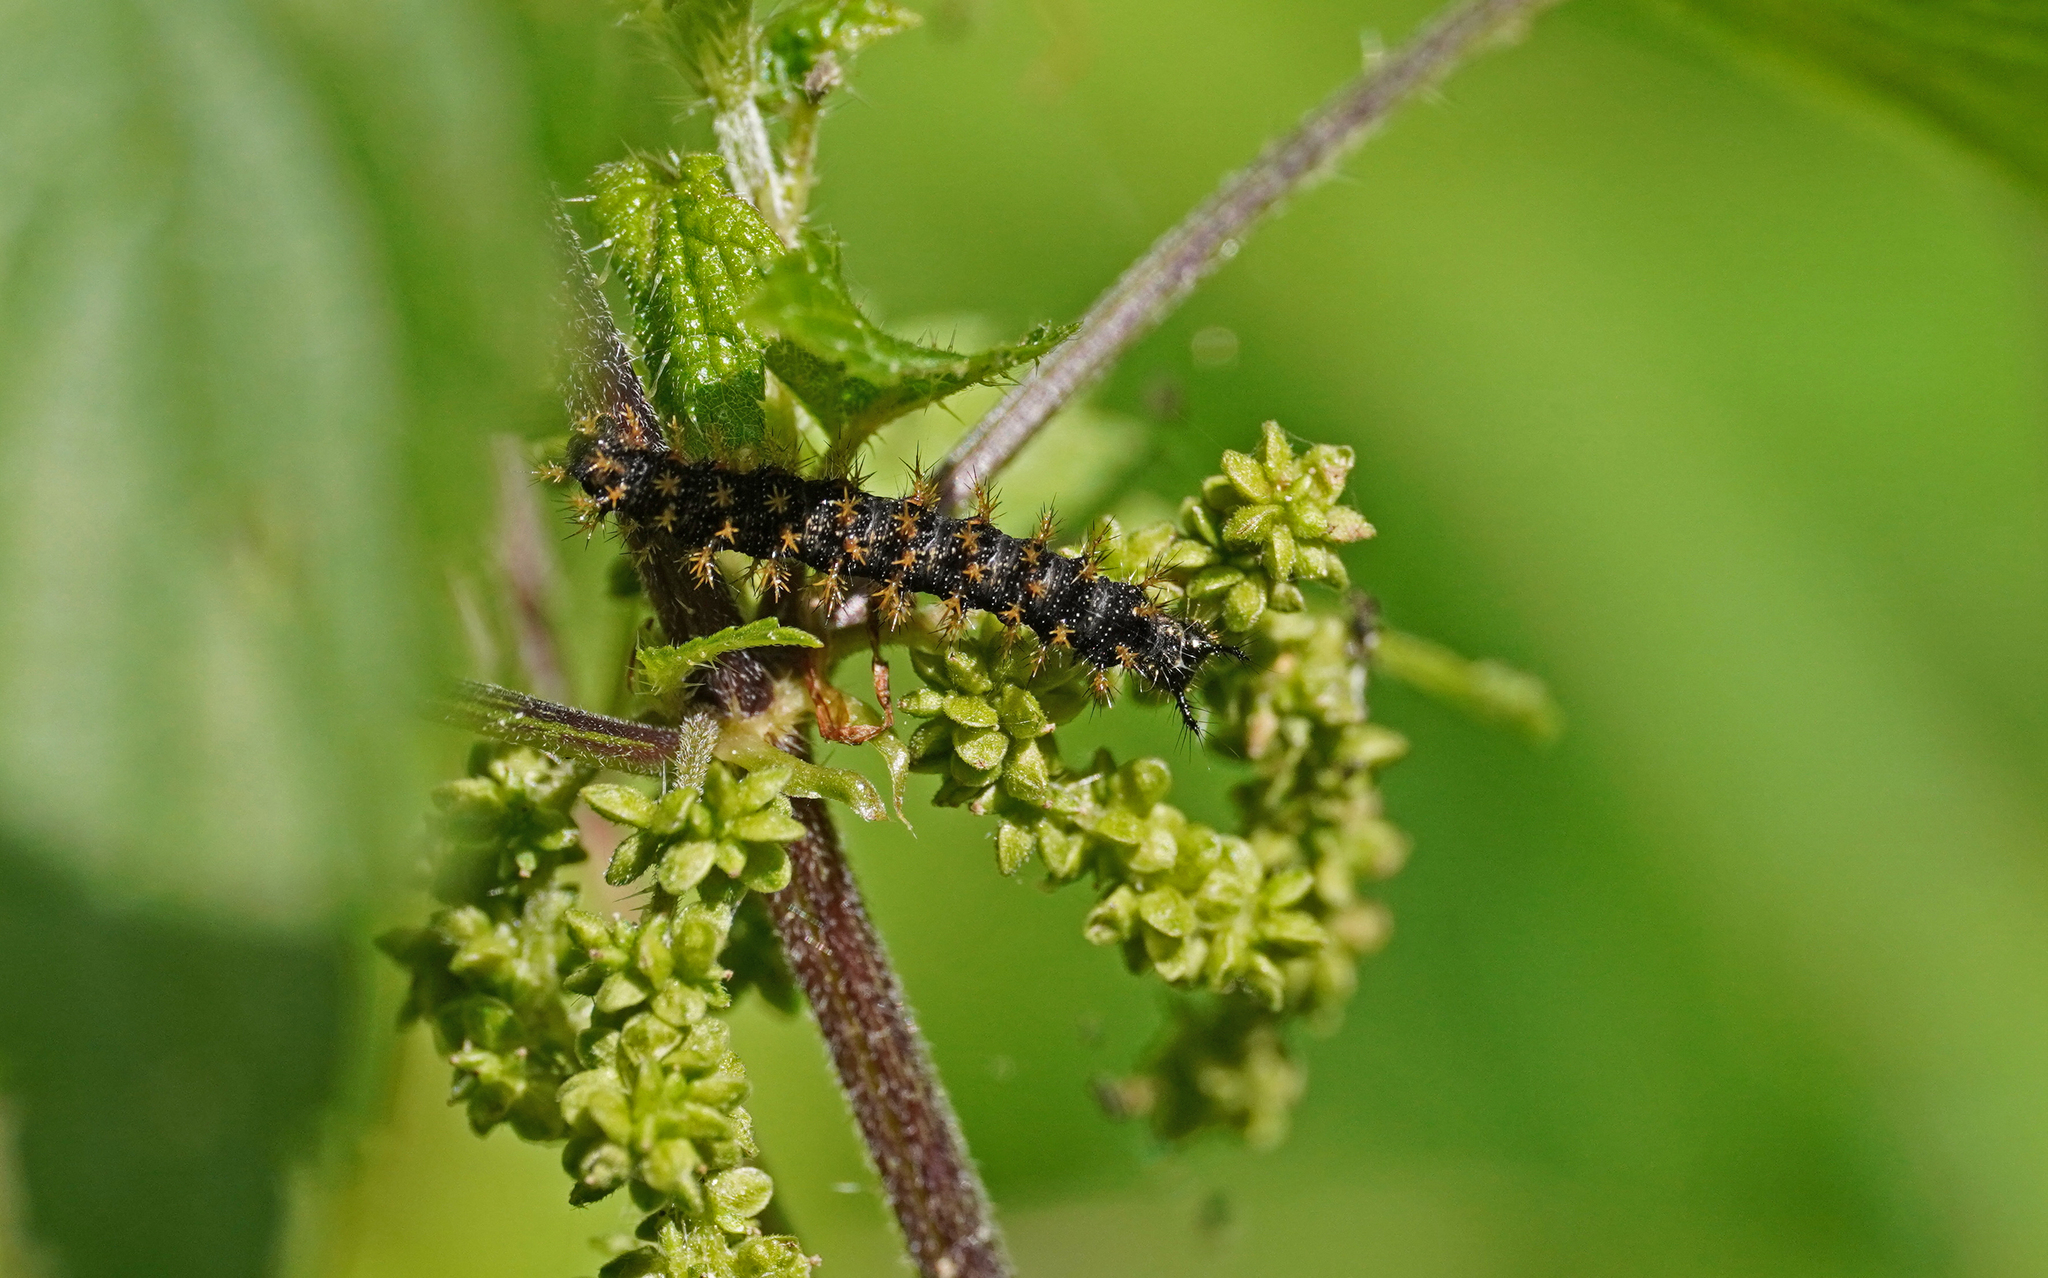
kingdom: Animalia
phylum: Arthropoda
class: Insecta
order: Lepidoptera
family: Nymphalidae
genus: Araschnia
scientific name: Araschnia levana
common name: Map butterfly
